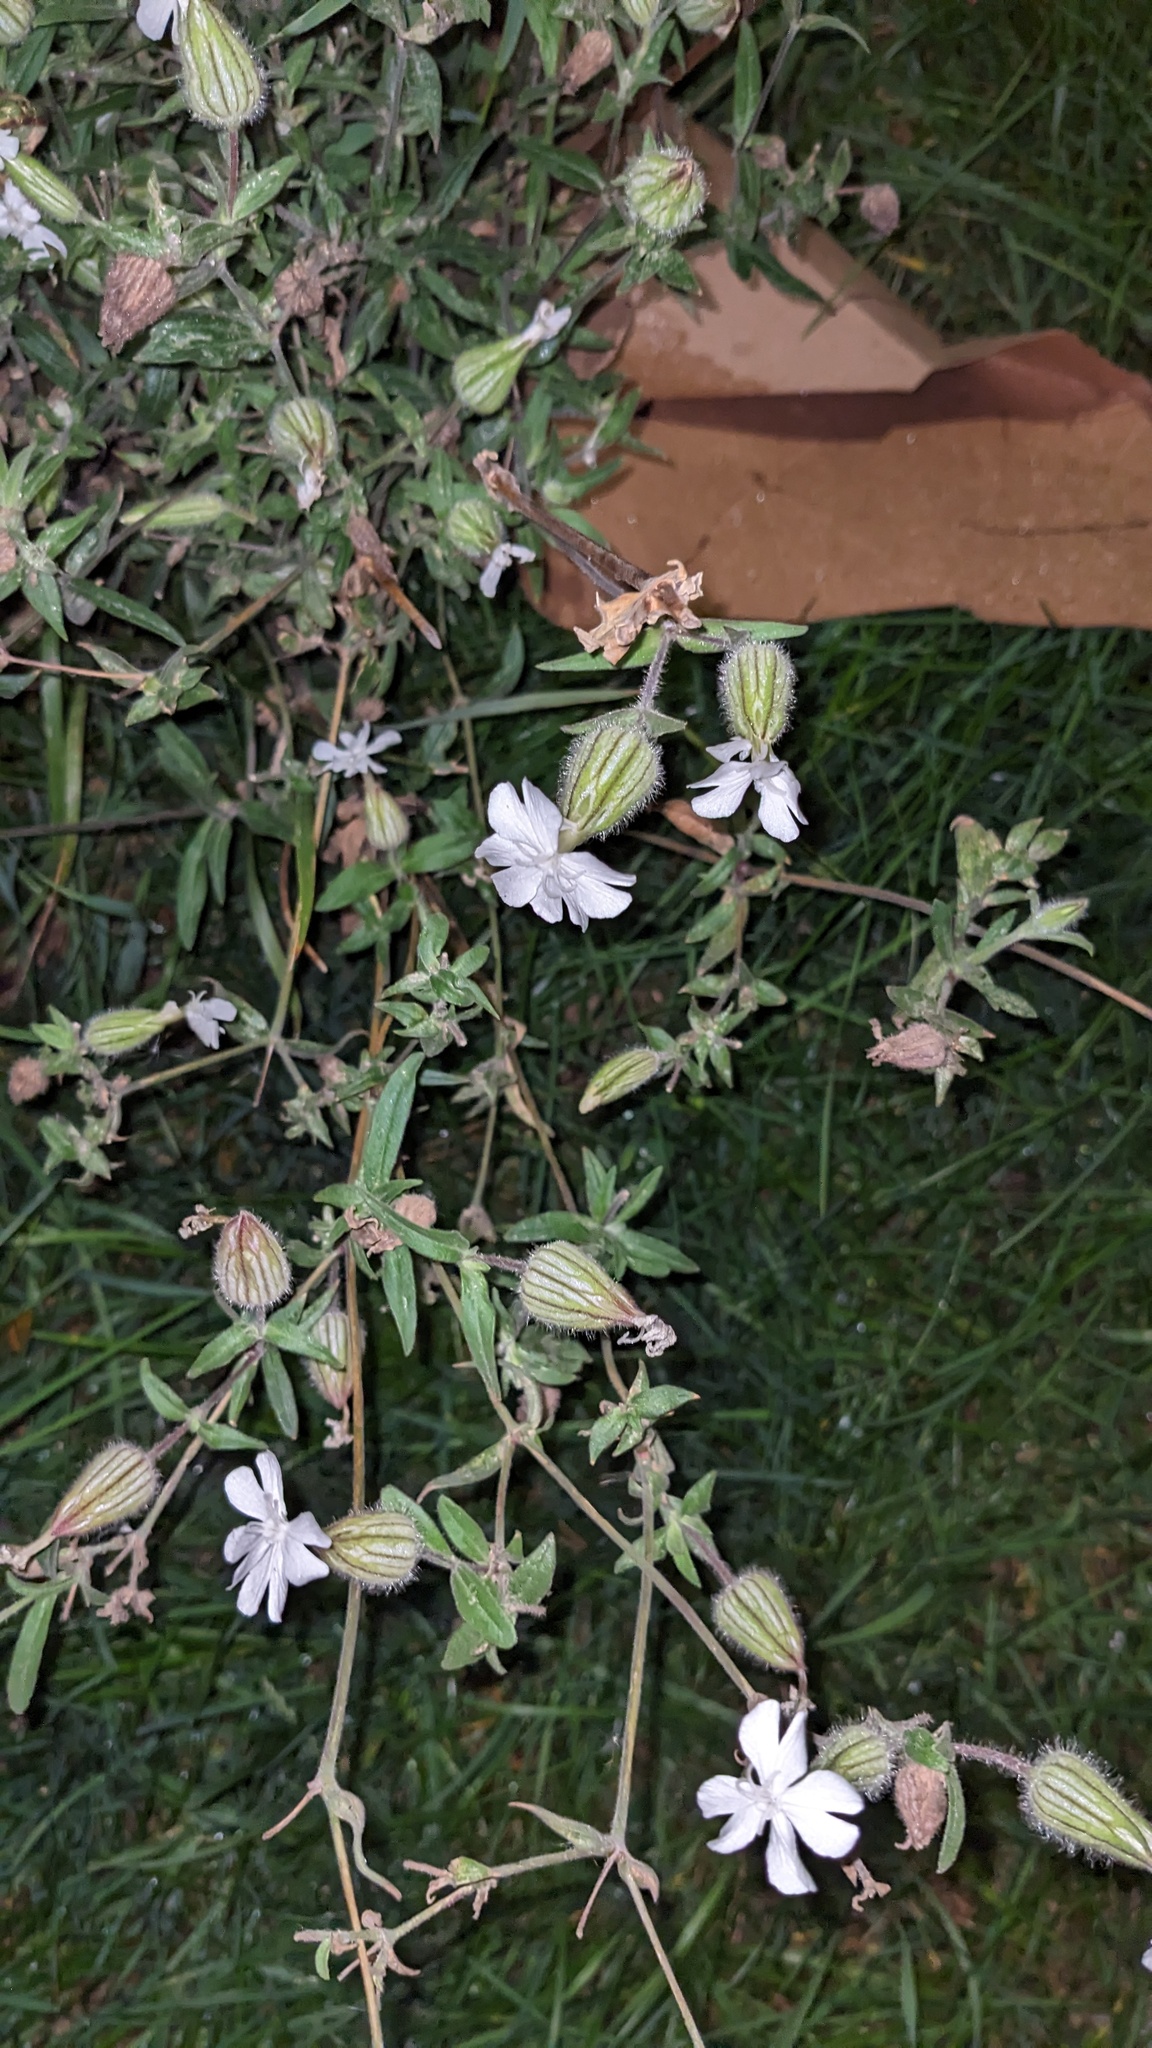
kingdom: Plantae
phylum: Tracheophyta
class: Magnoliopsida
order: Caryophyllales
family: Caryophyllaceae
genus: Silene
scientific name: Silene latifolia
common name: White campion
